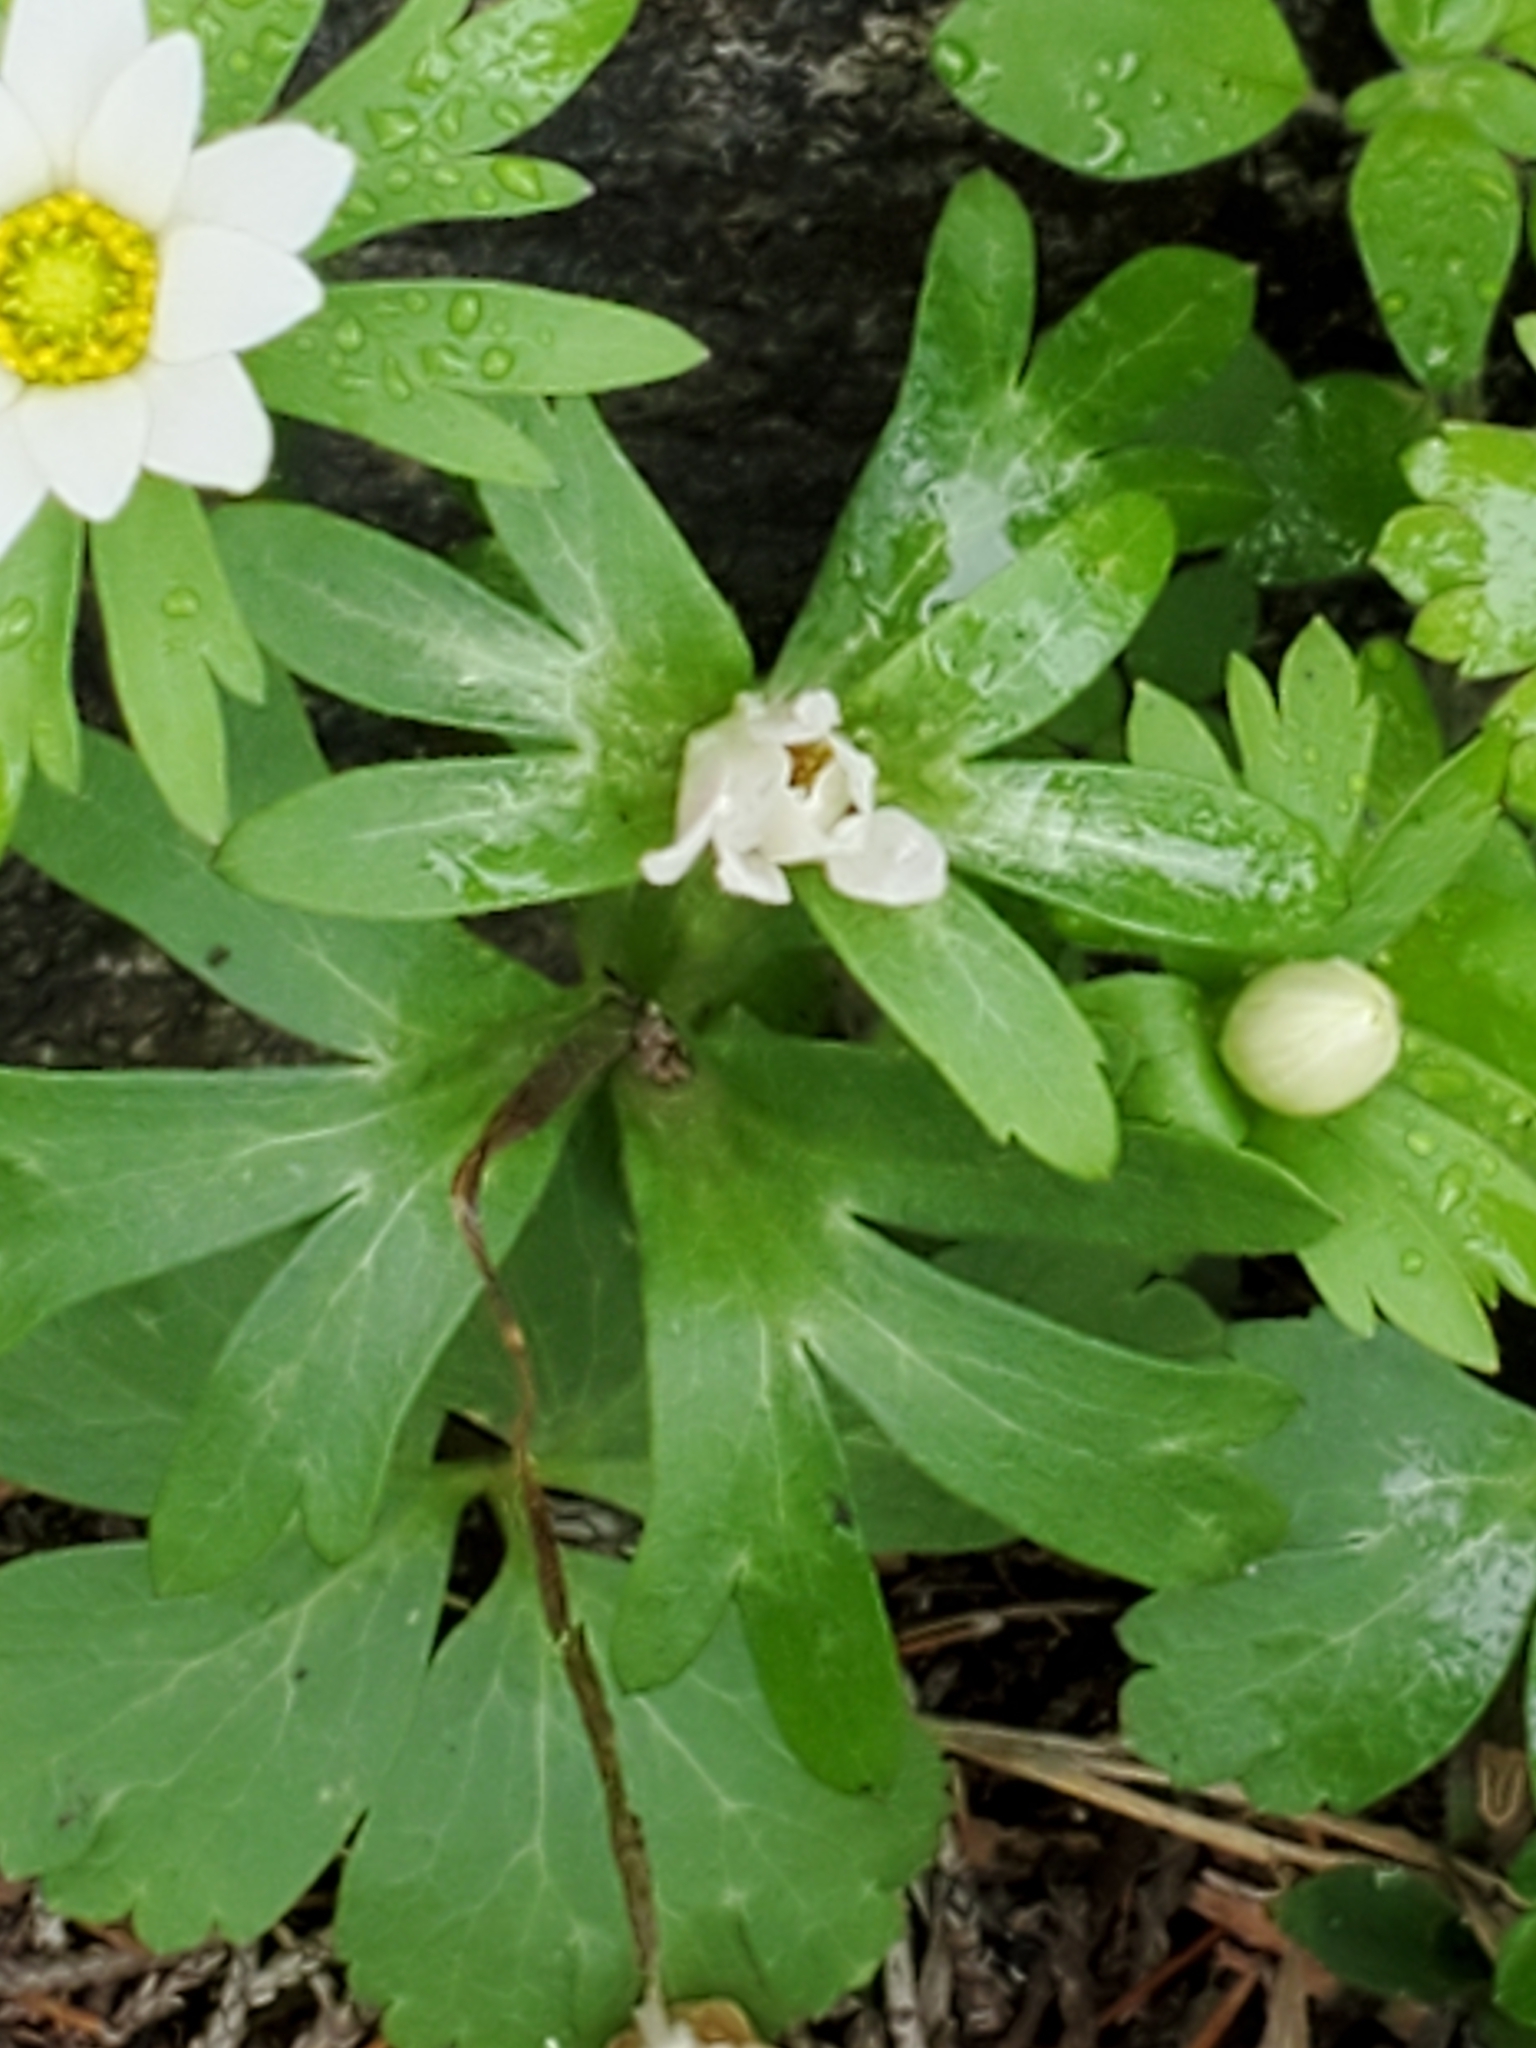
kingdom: Plantae
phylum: Tracheophyta
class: Magnoliopsida
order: Ranunculales
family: Ranunculaceae
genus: Anemone
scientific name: Anemone edwardsiana
